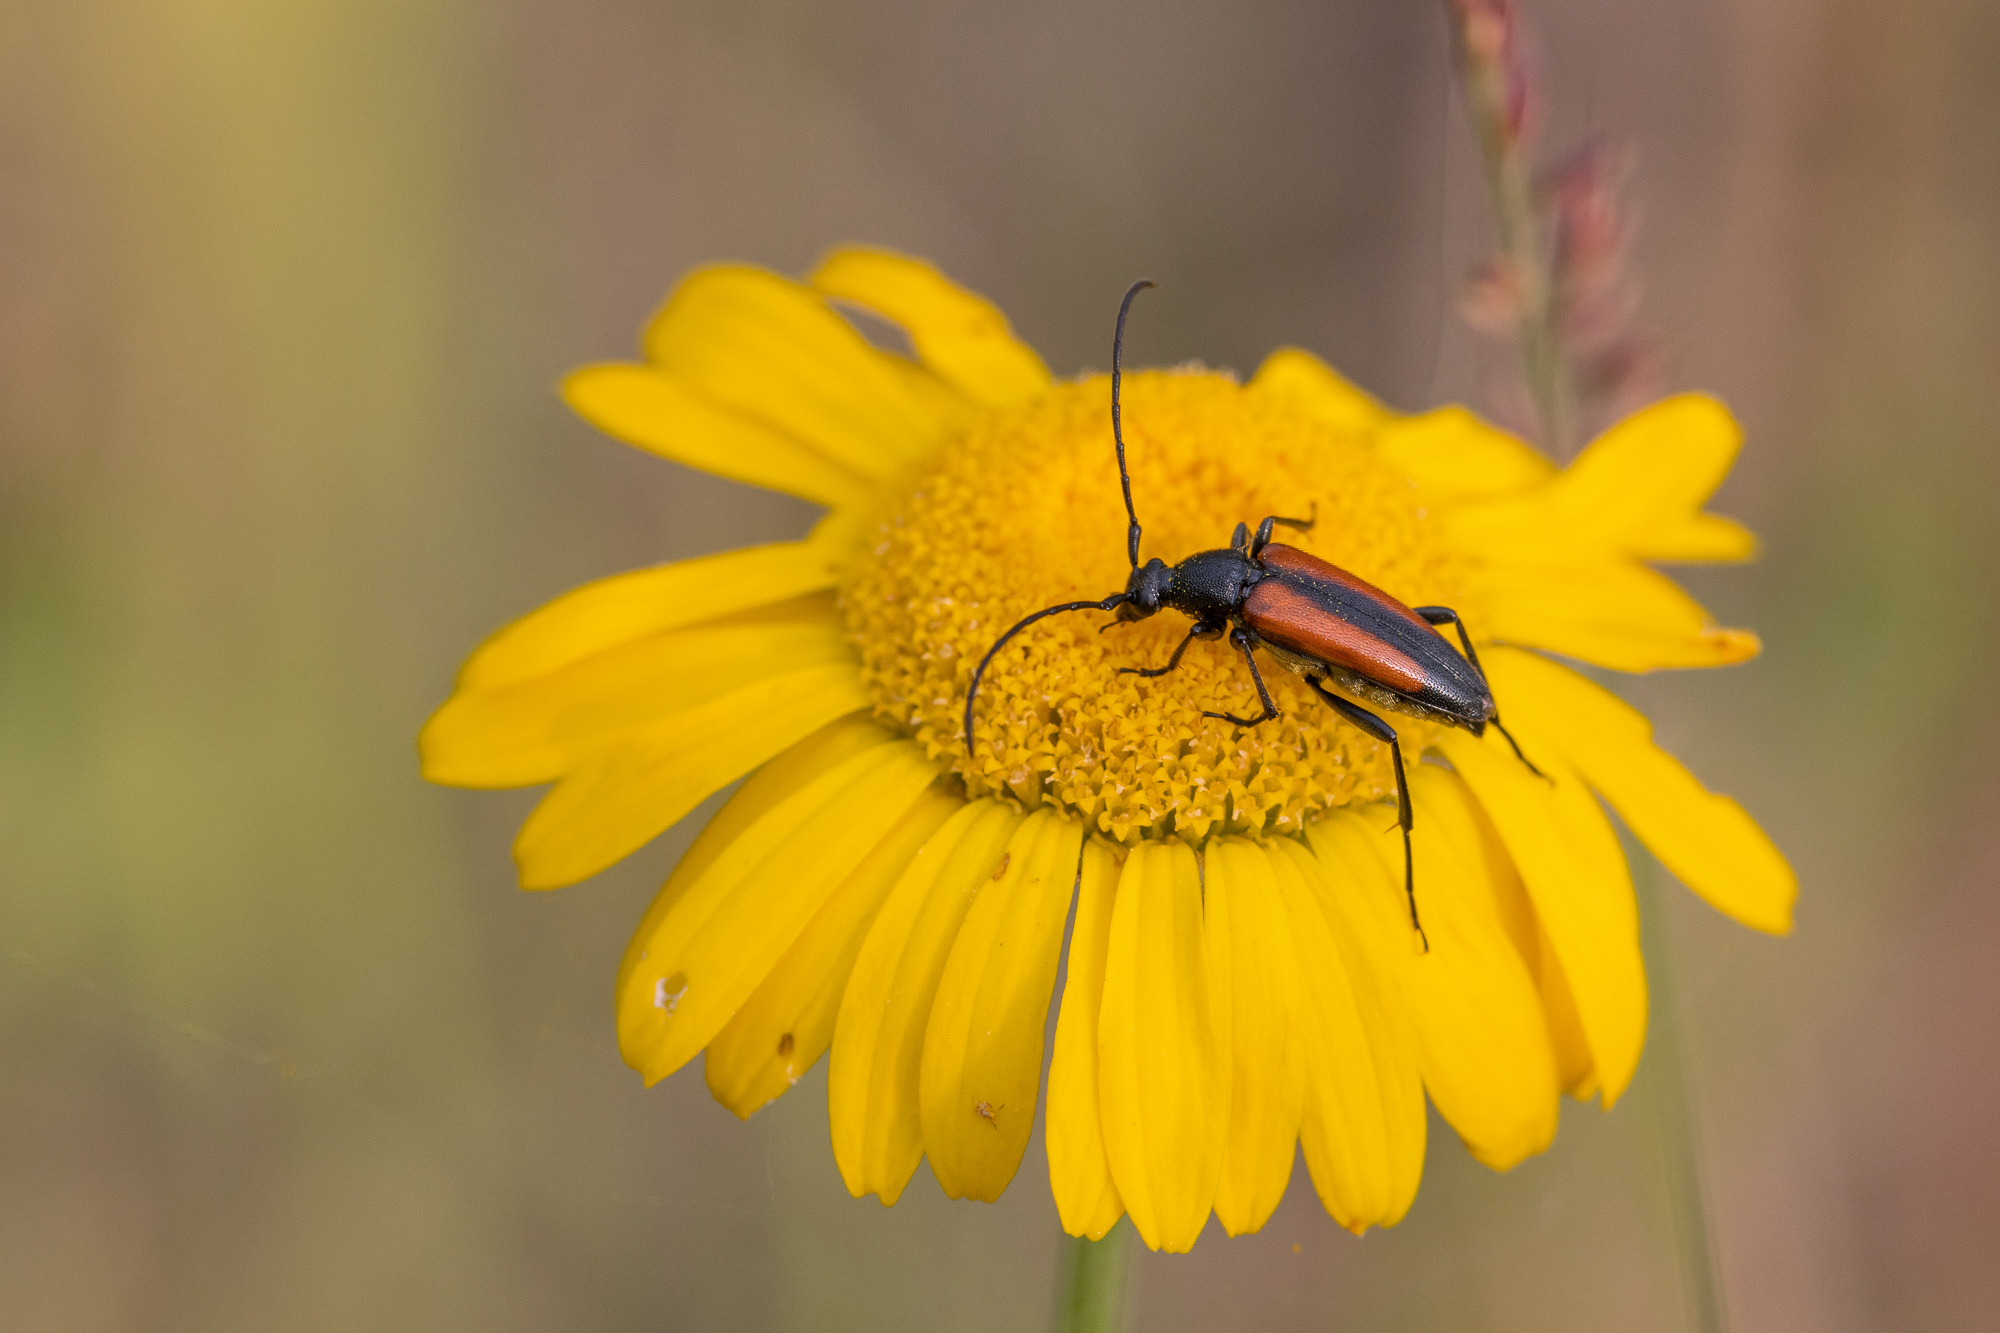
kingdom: Animalia
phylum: Arthropoda
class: Insecta
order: Coleoptera
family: Cerambycidae
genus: Stenurella
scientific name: Stenurella melanura
